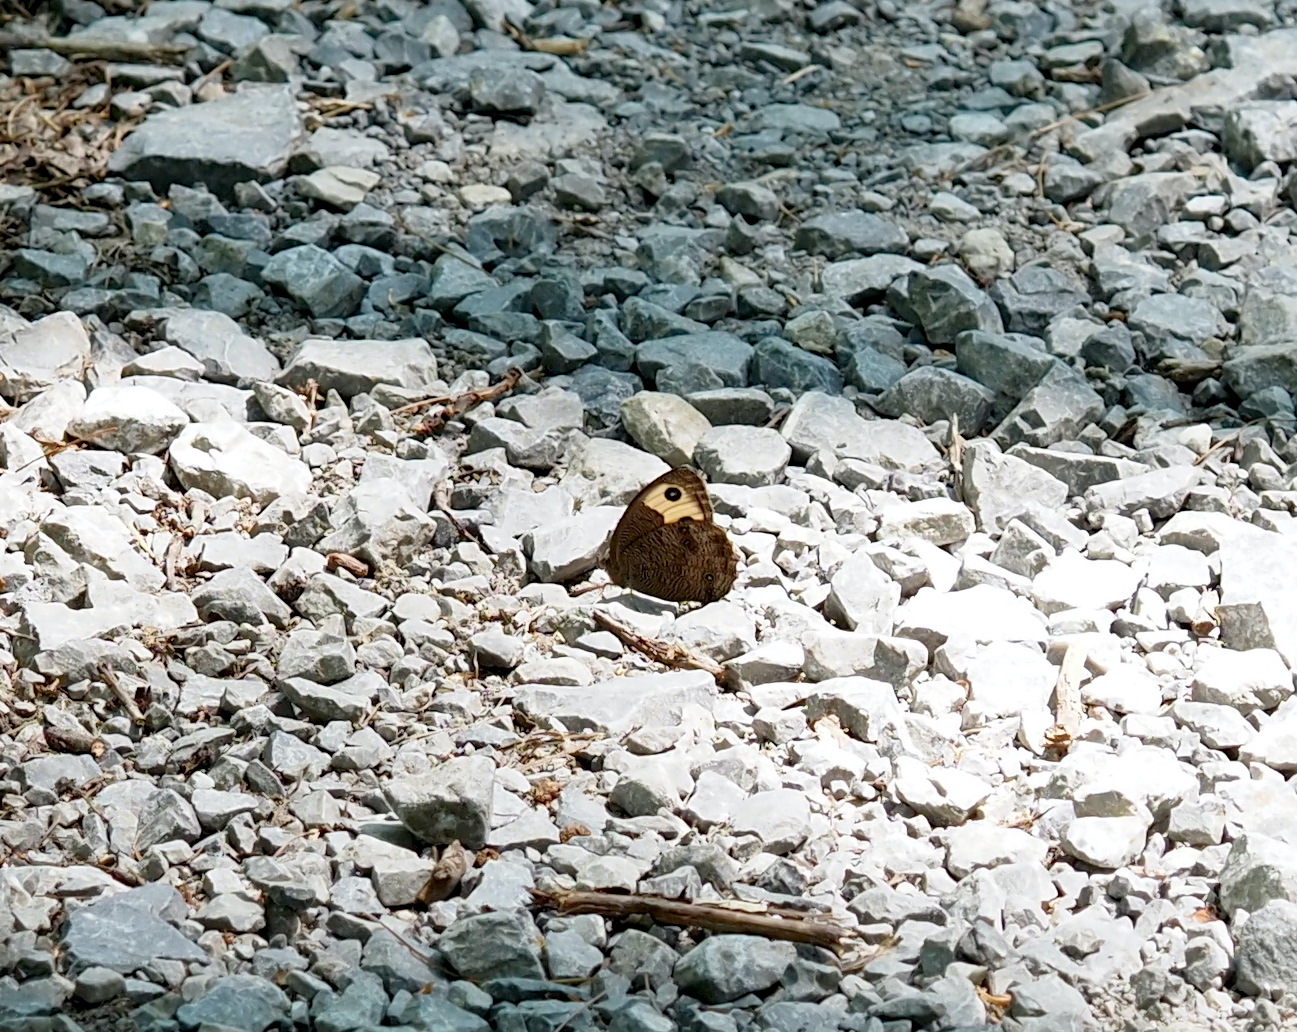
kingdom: Animalia
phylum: Arthropoda
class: Insecta
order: Lepidoptera
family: Nymphalidae
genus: Cercyonis
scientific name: Cercyonis pegala
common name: Common wood-nymph
